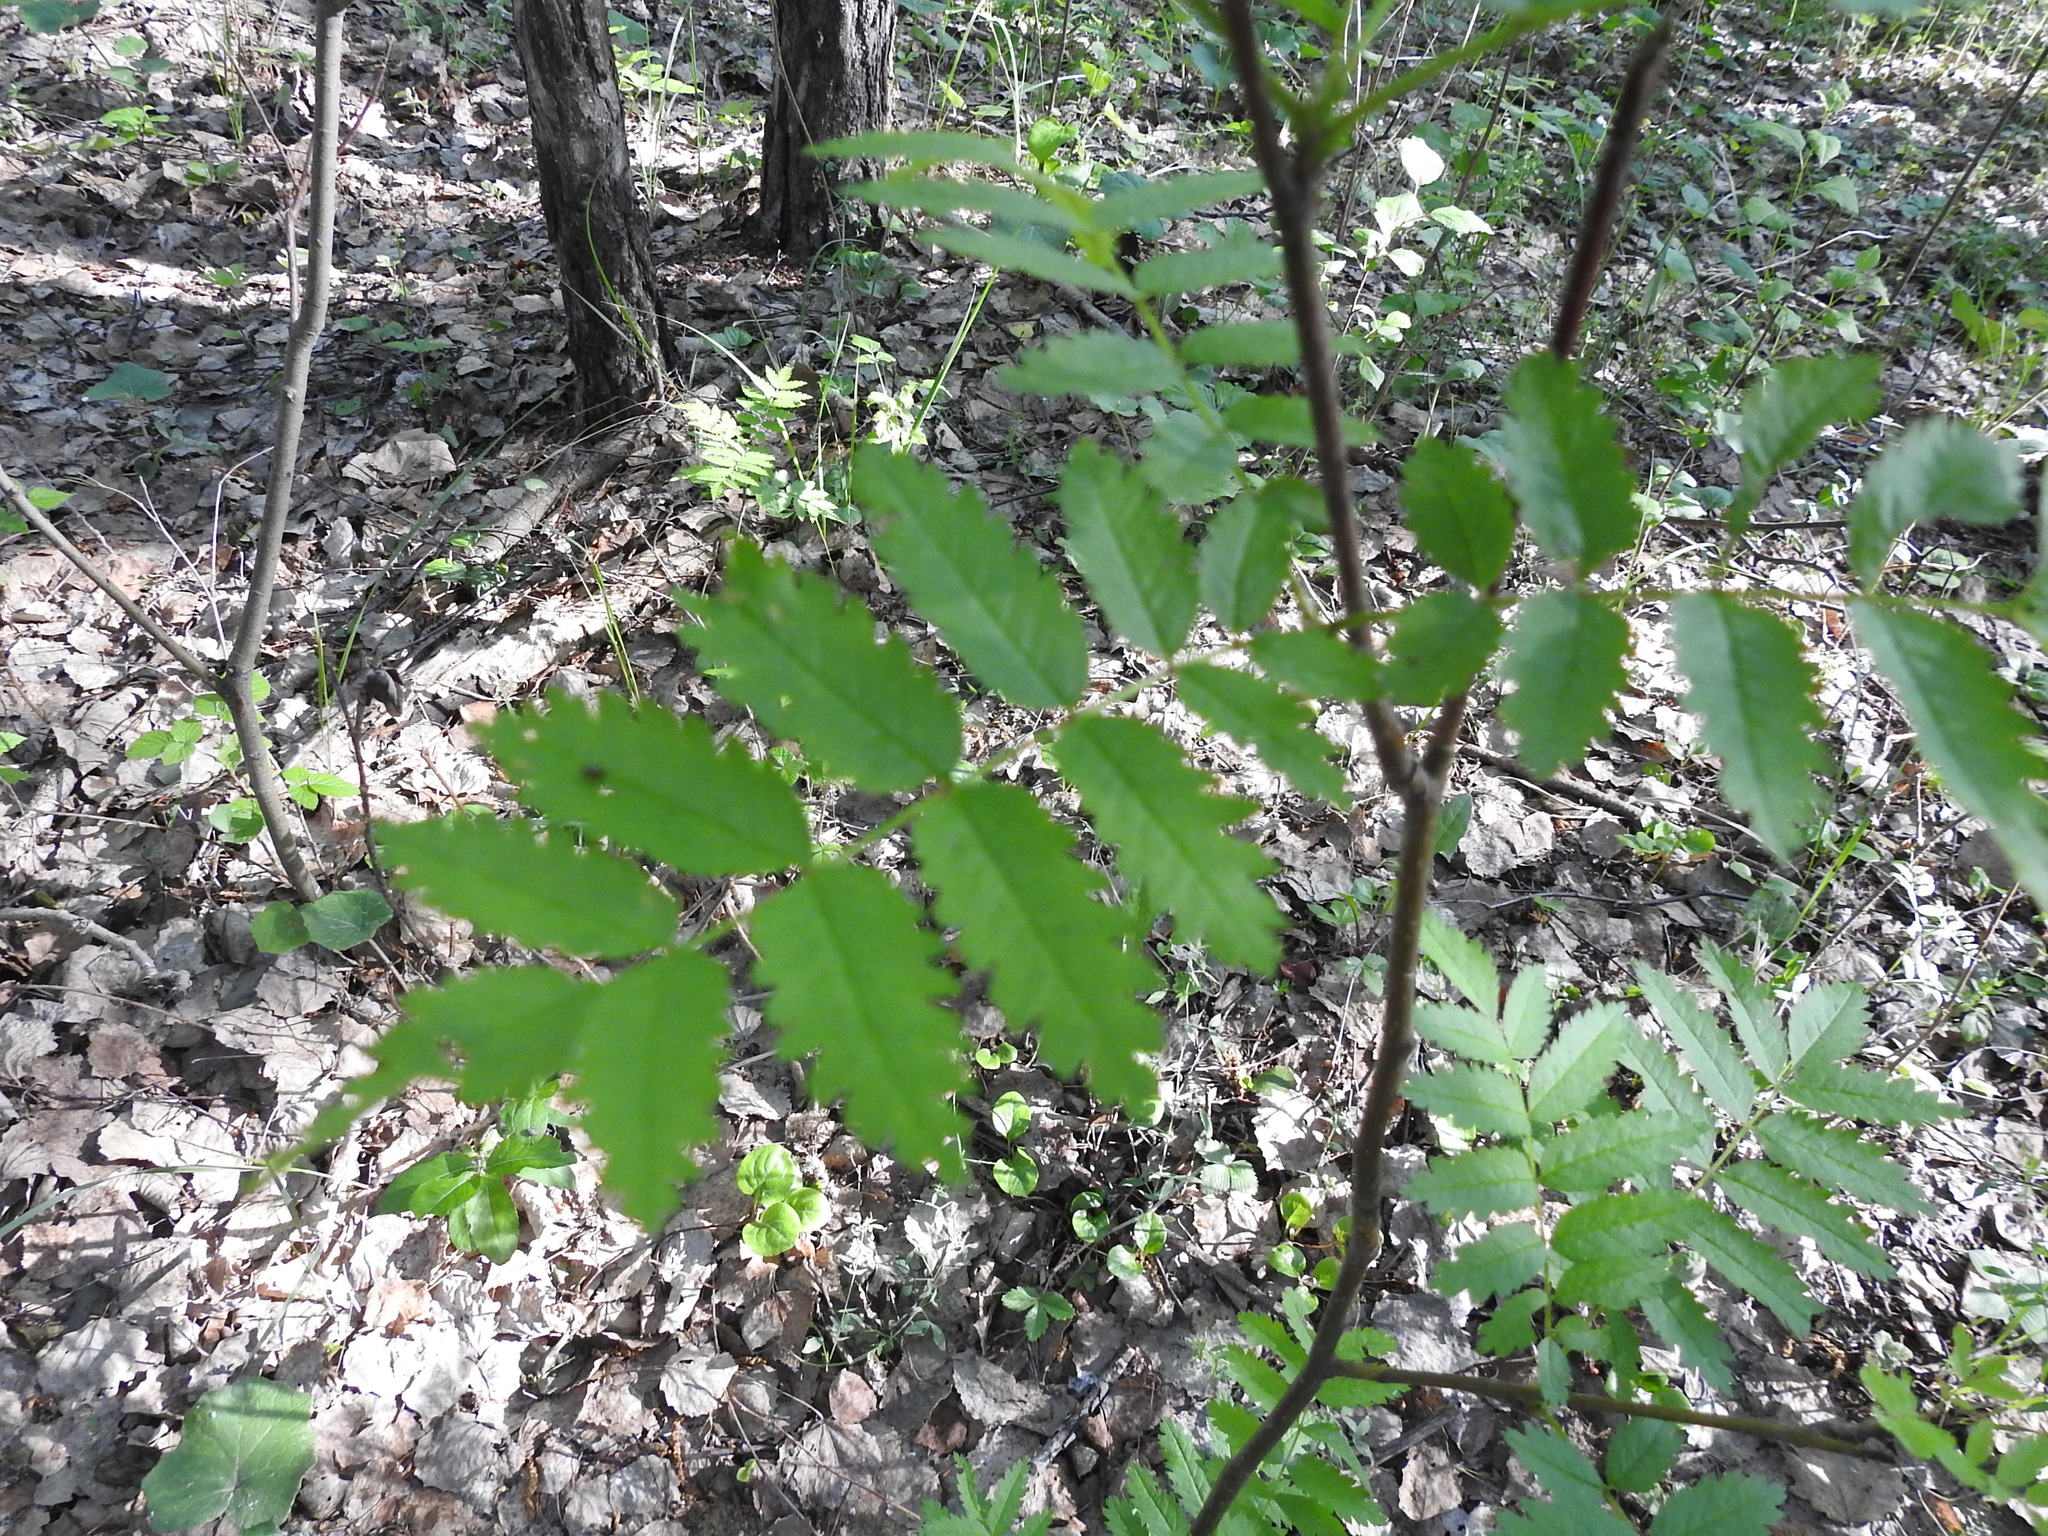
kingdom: Plantae
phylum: Tracheophyta
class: Magnoliopsida
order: Rosales
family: Rosaceae
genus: Sorbus
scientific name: Sorbus aucuparia
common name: Rowan
